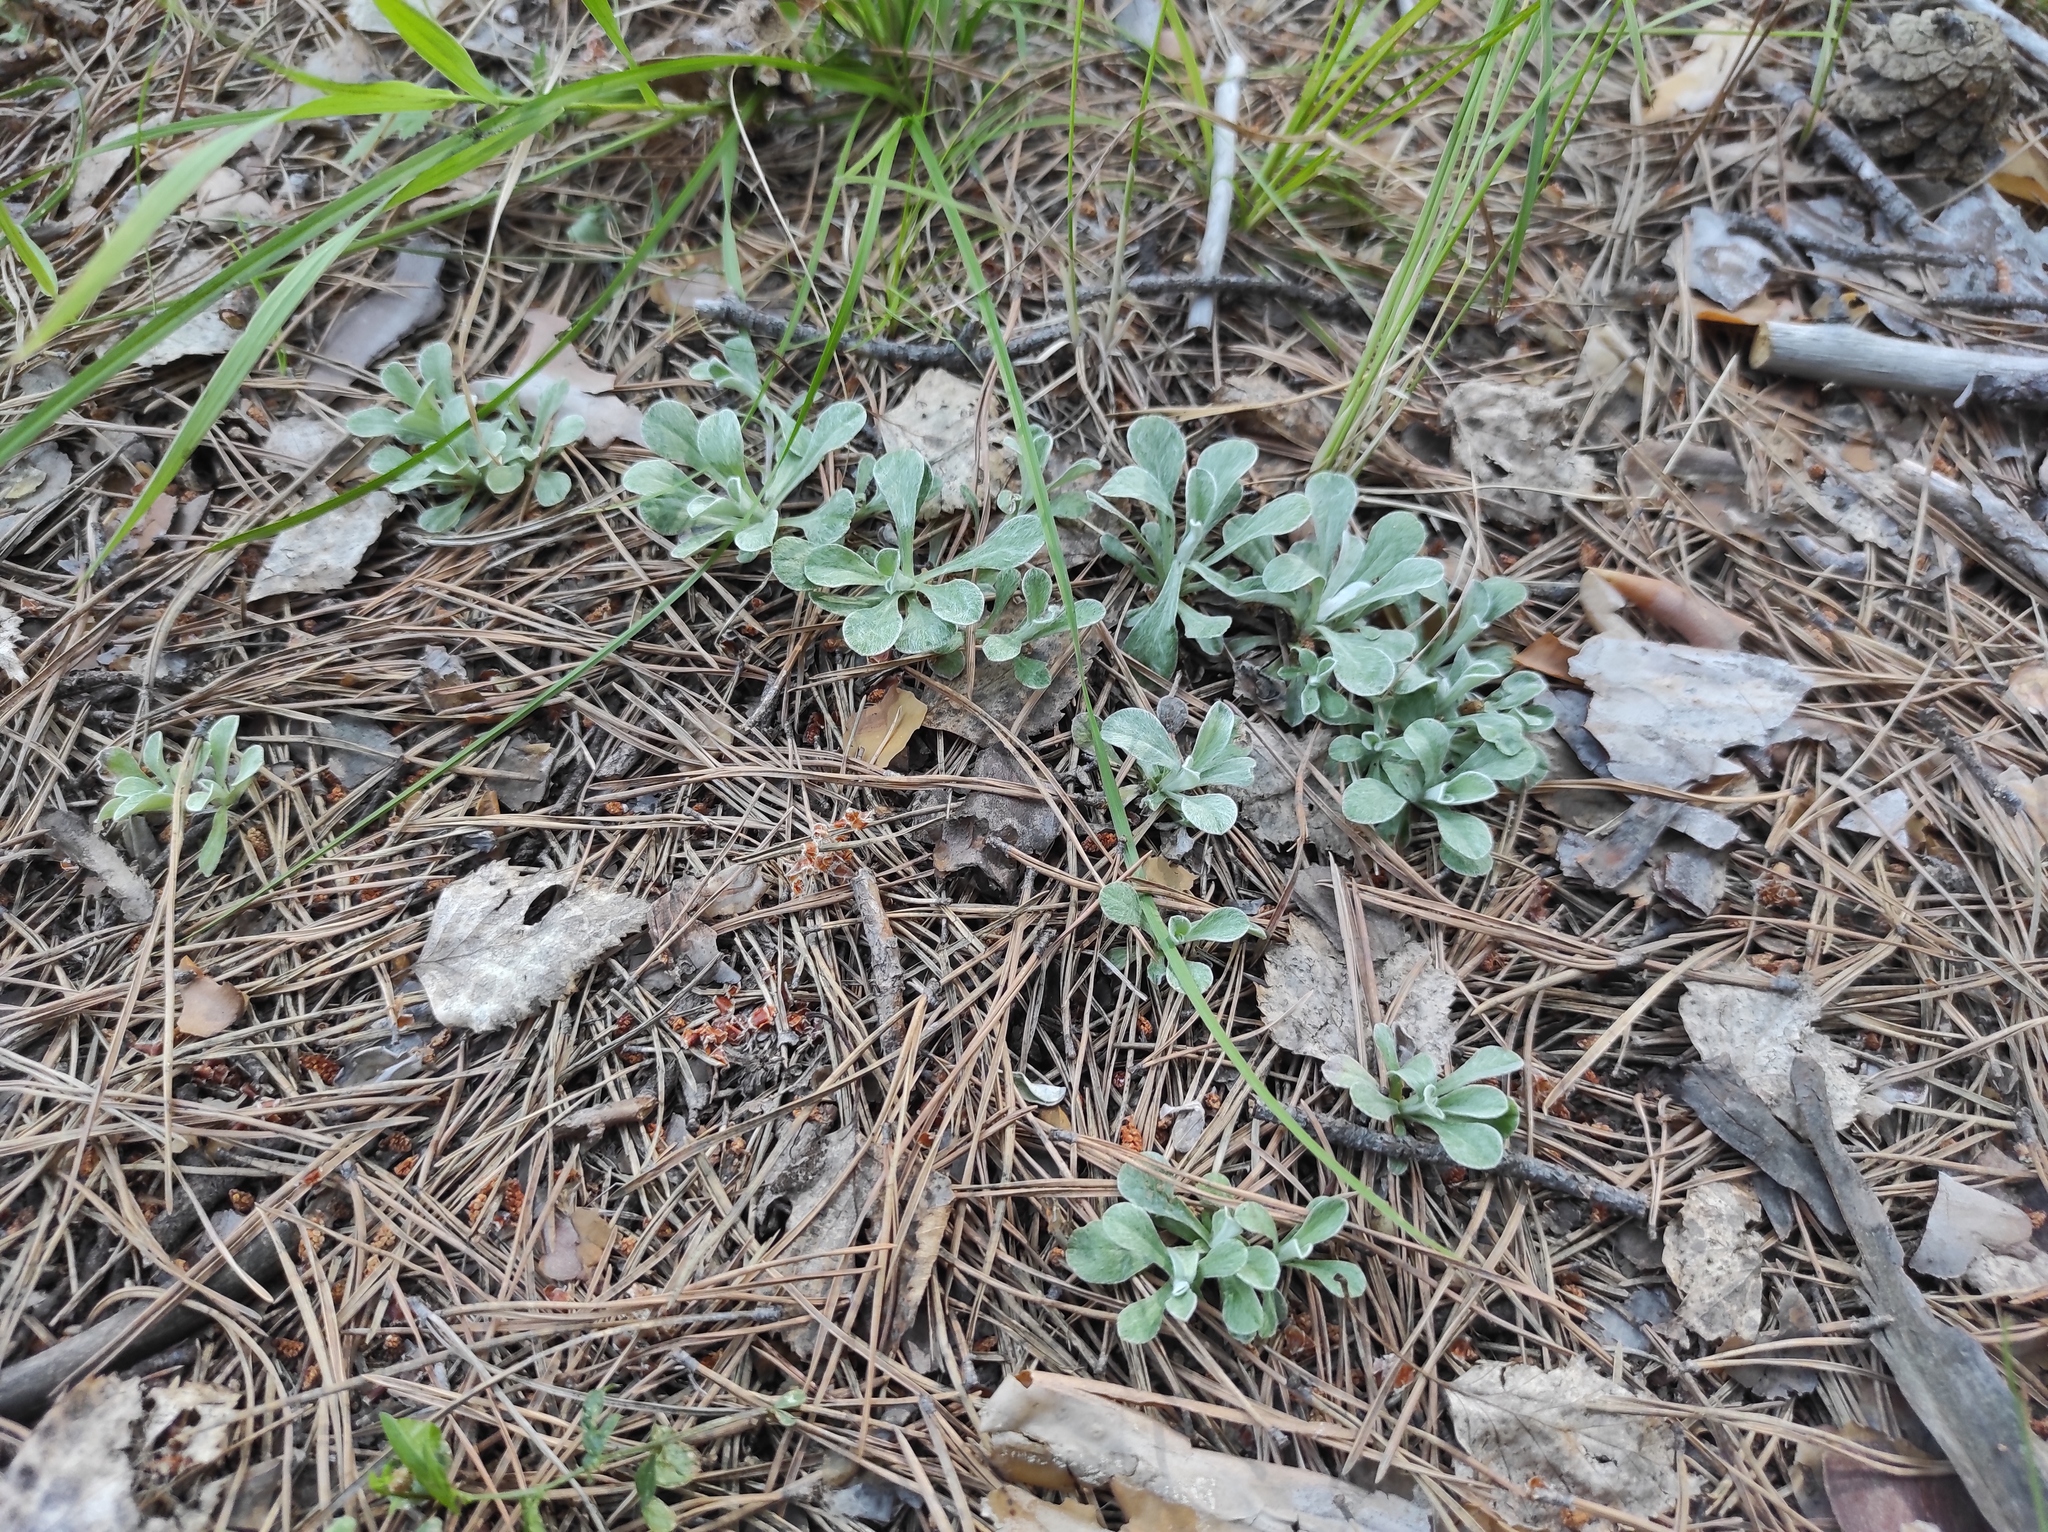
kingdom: Plantae
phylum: Tracheophyta
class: Magnoliopsida
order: Asterales
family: Asteraceae
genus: Antennaria
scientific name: Antennaria dioica
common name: Mountain everlasting
